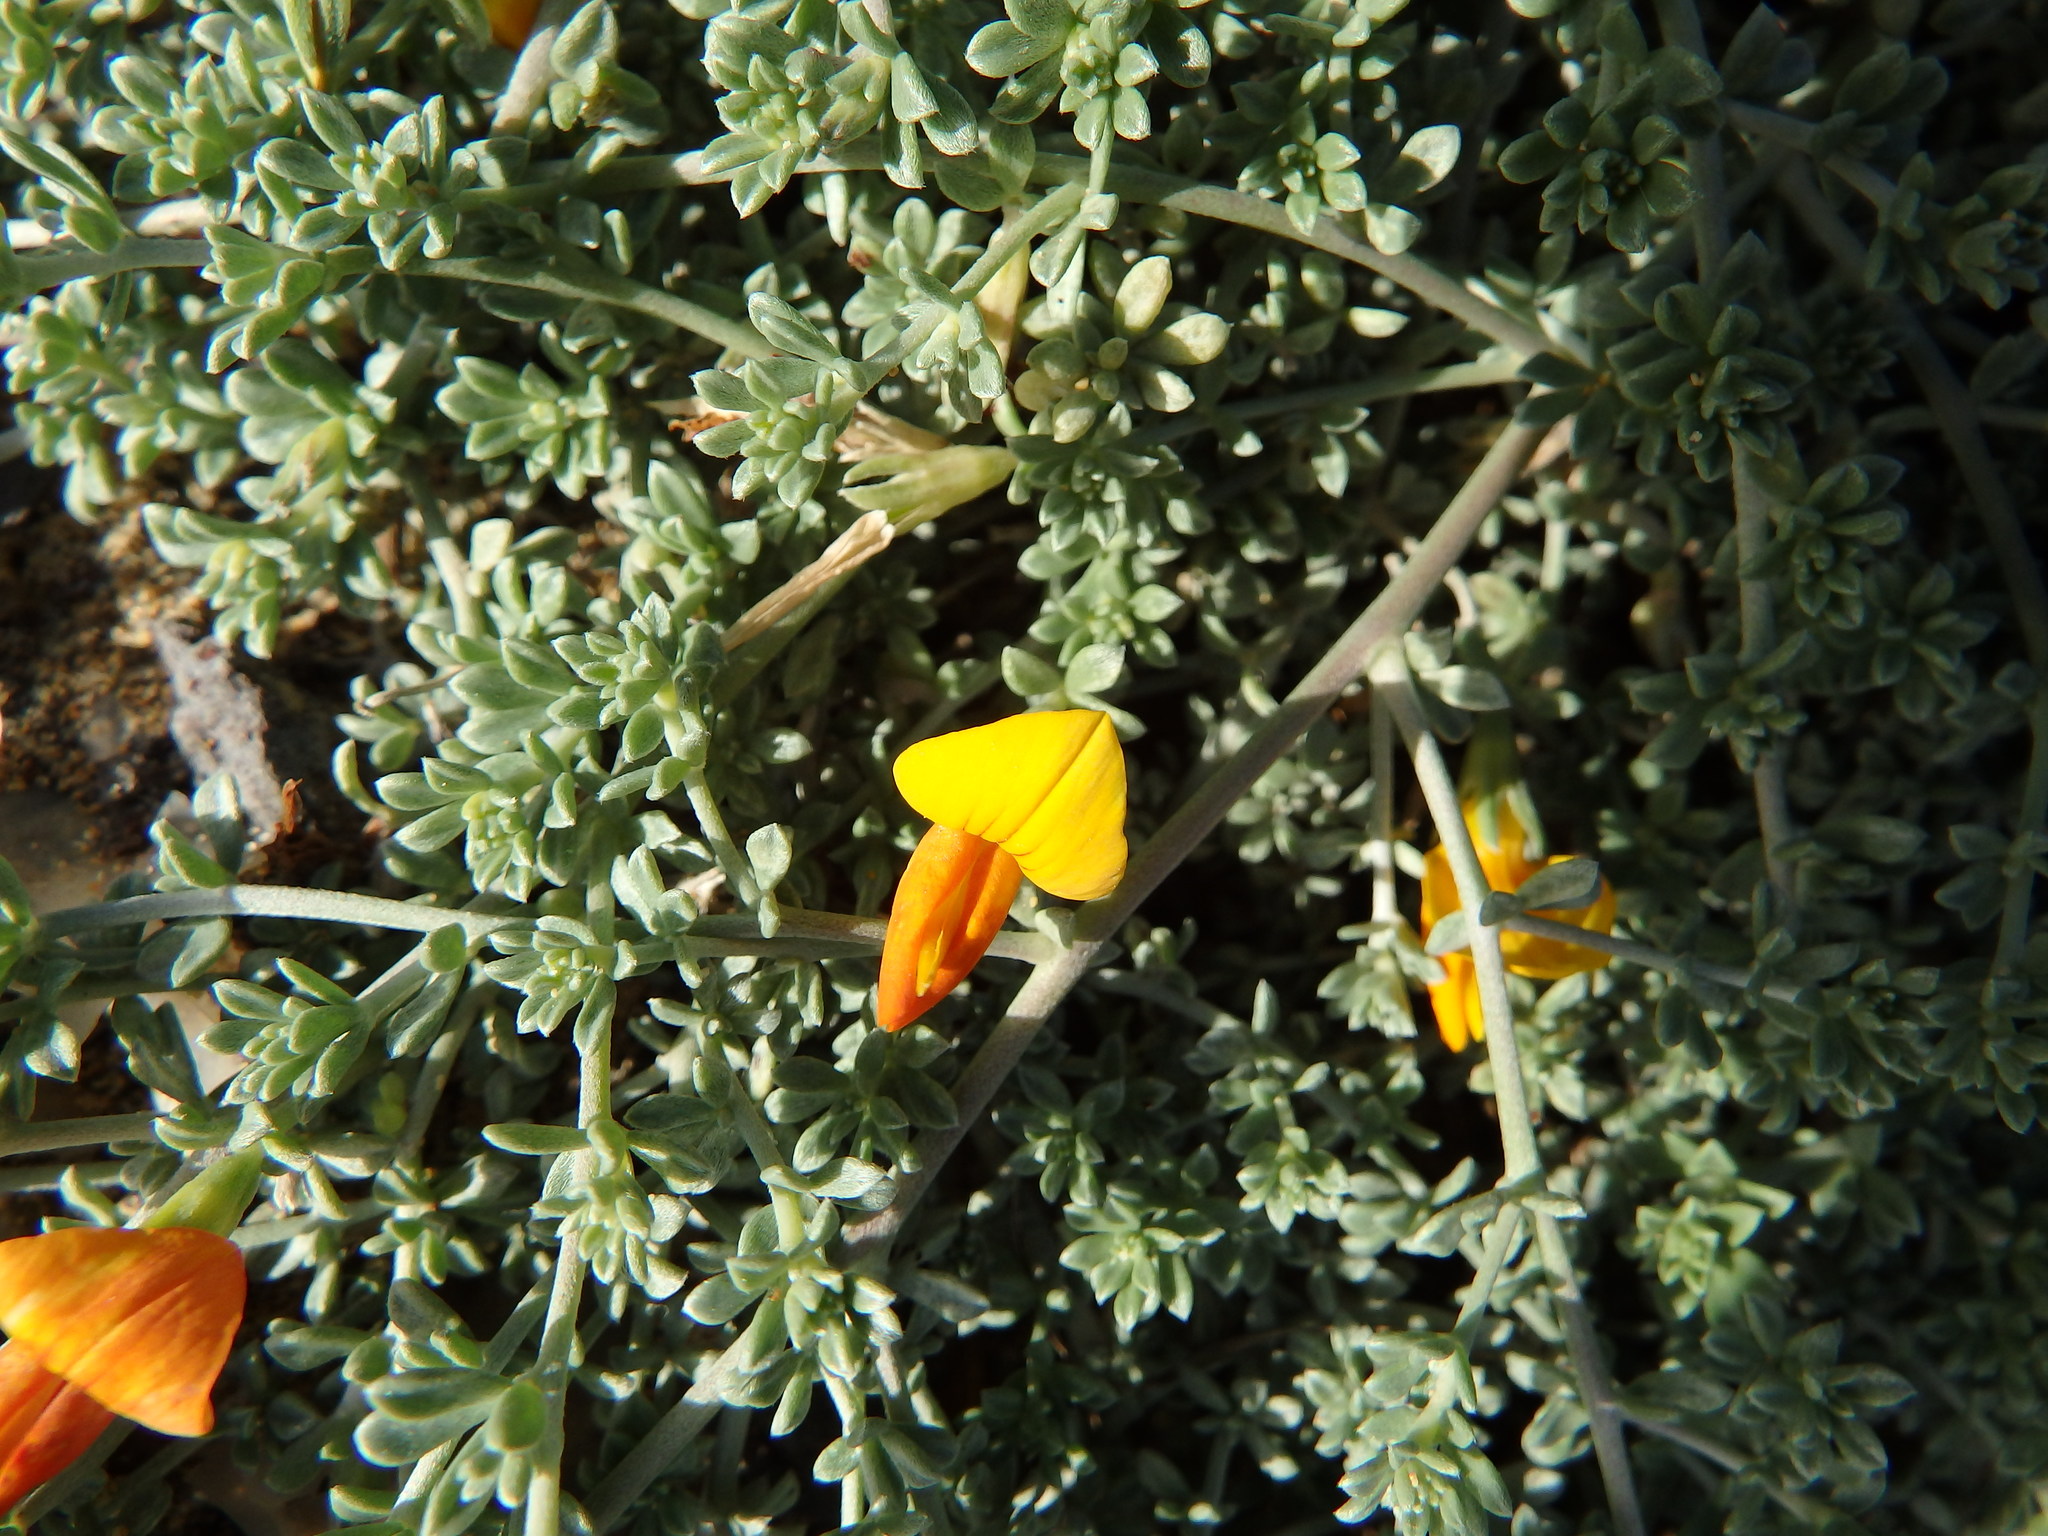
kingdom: Plantae
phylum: Tracheophyta
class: Magnoliopsida
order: Fabales
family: Fabaceae
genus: Lotus
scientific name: Lotus glaucus
